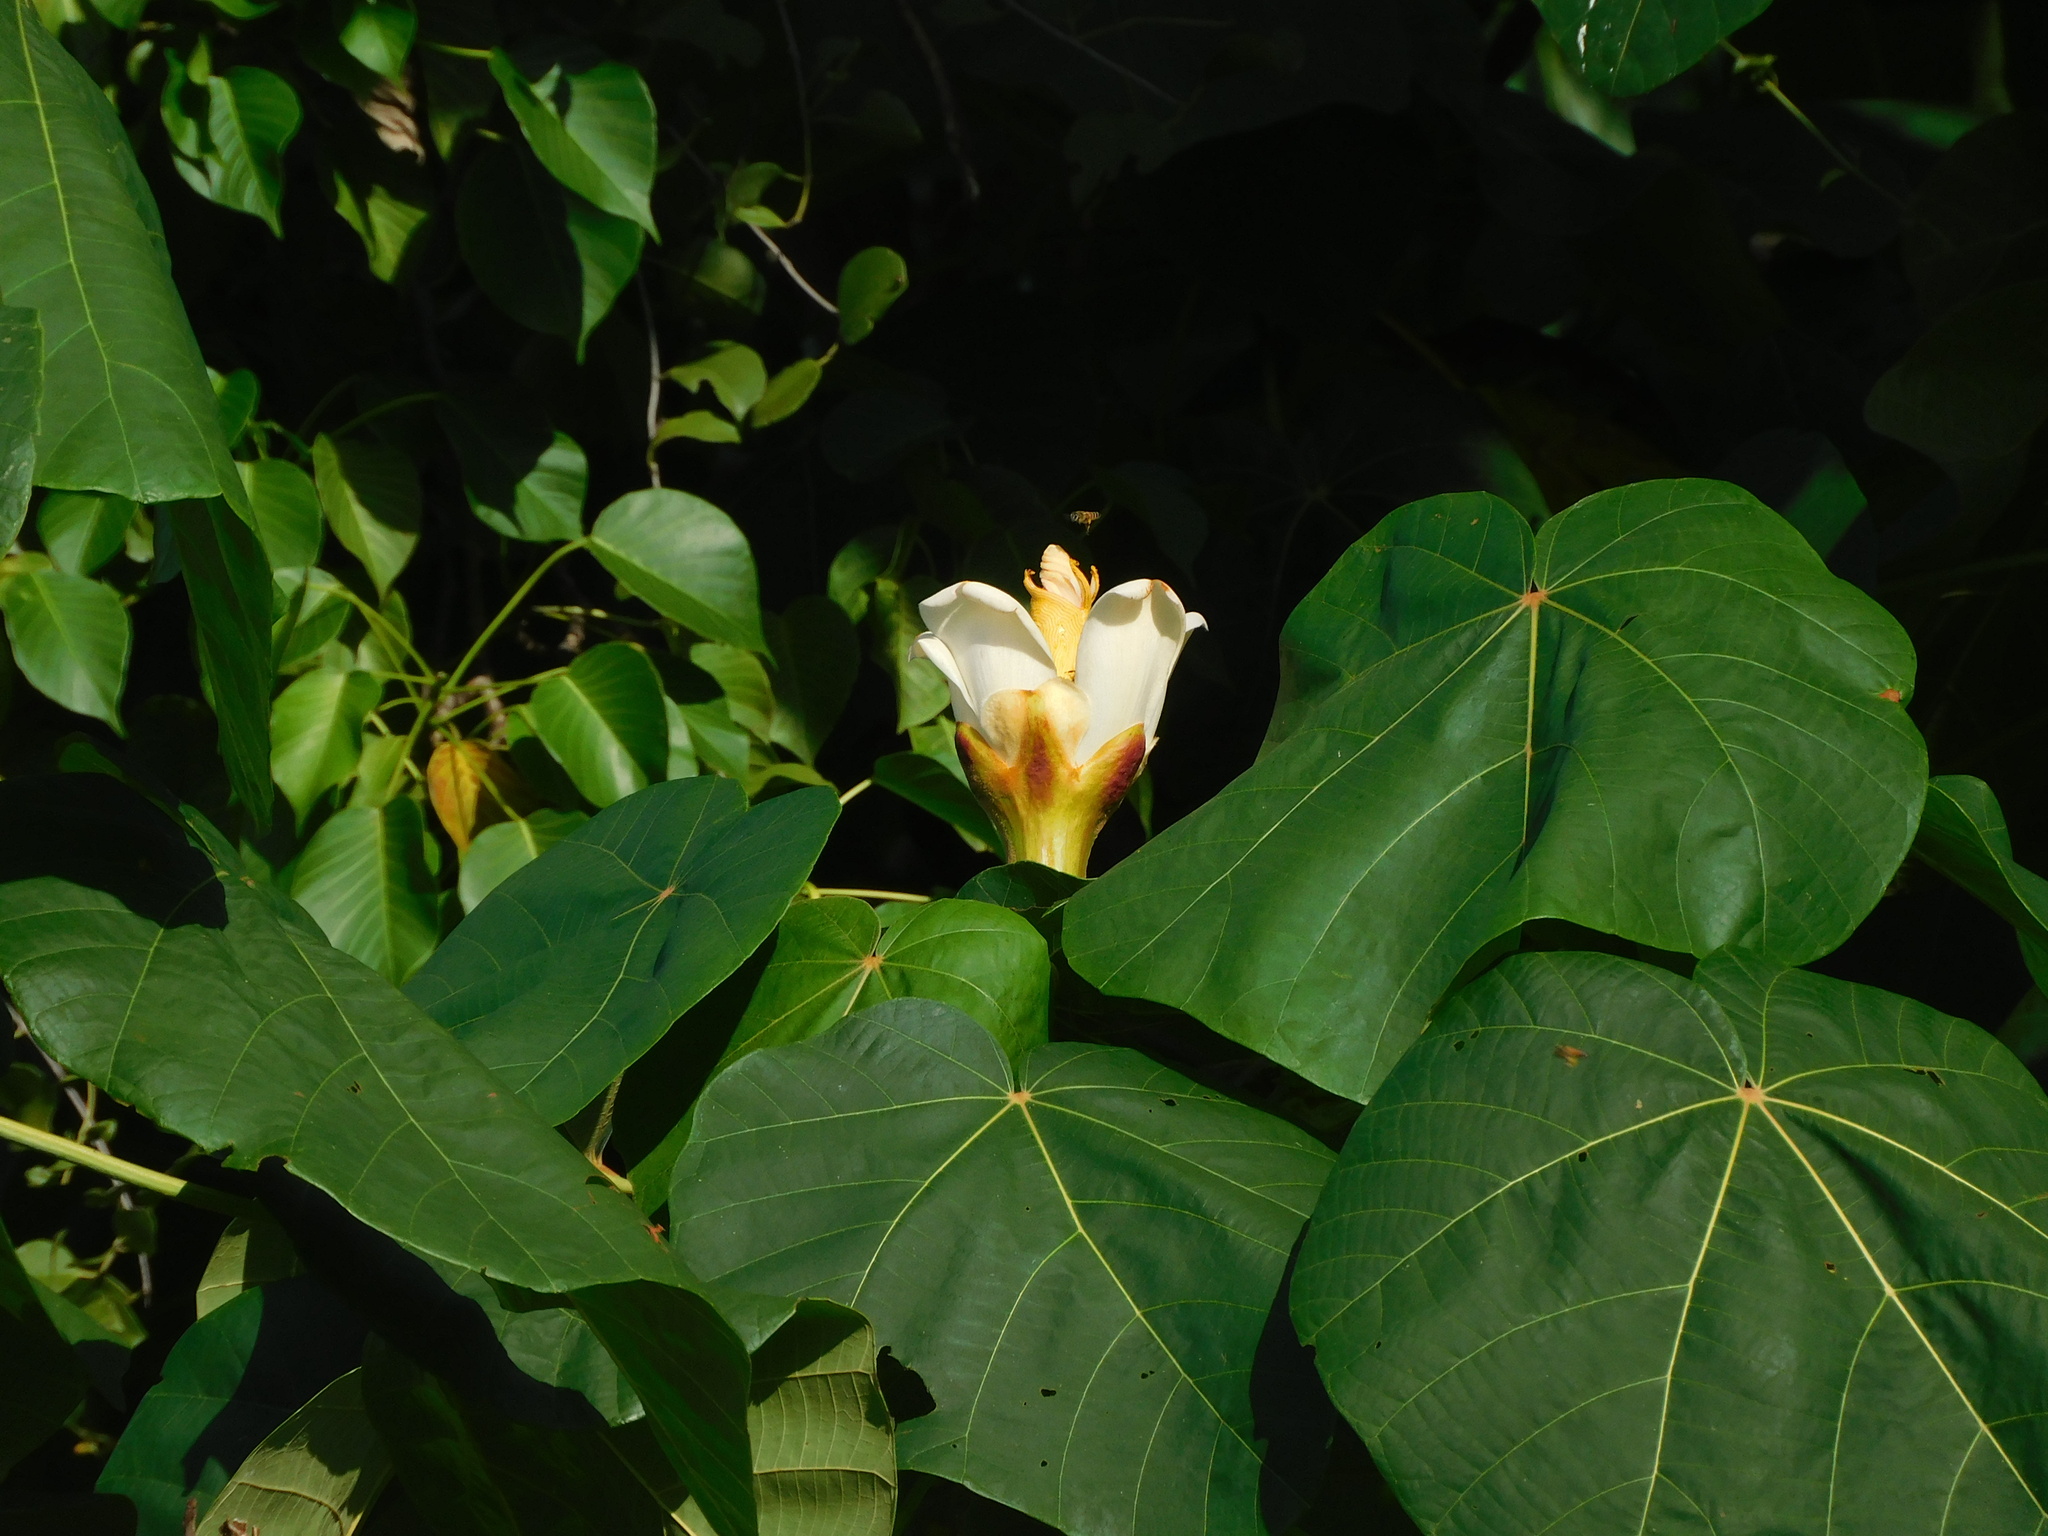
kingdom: Plantae
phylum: Tracheophyta
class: Magnoliopsida
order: Malvales
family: Malvaceae
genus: Ochroma
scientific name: Ochroma pyramidale
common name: Balsa
